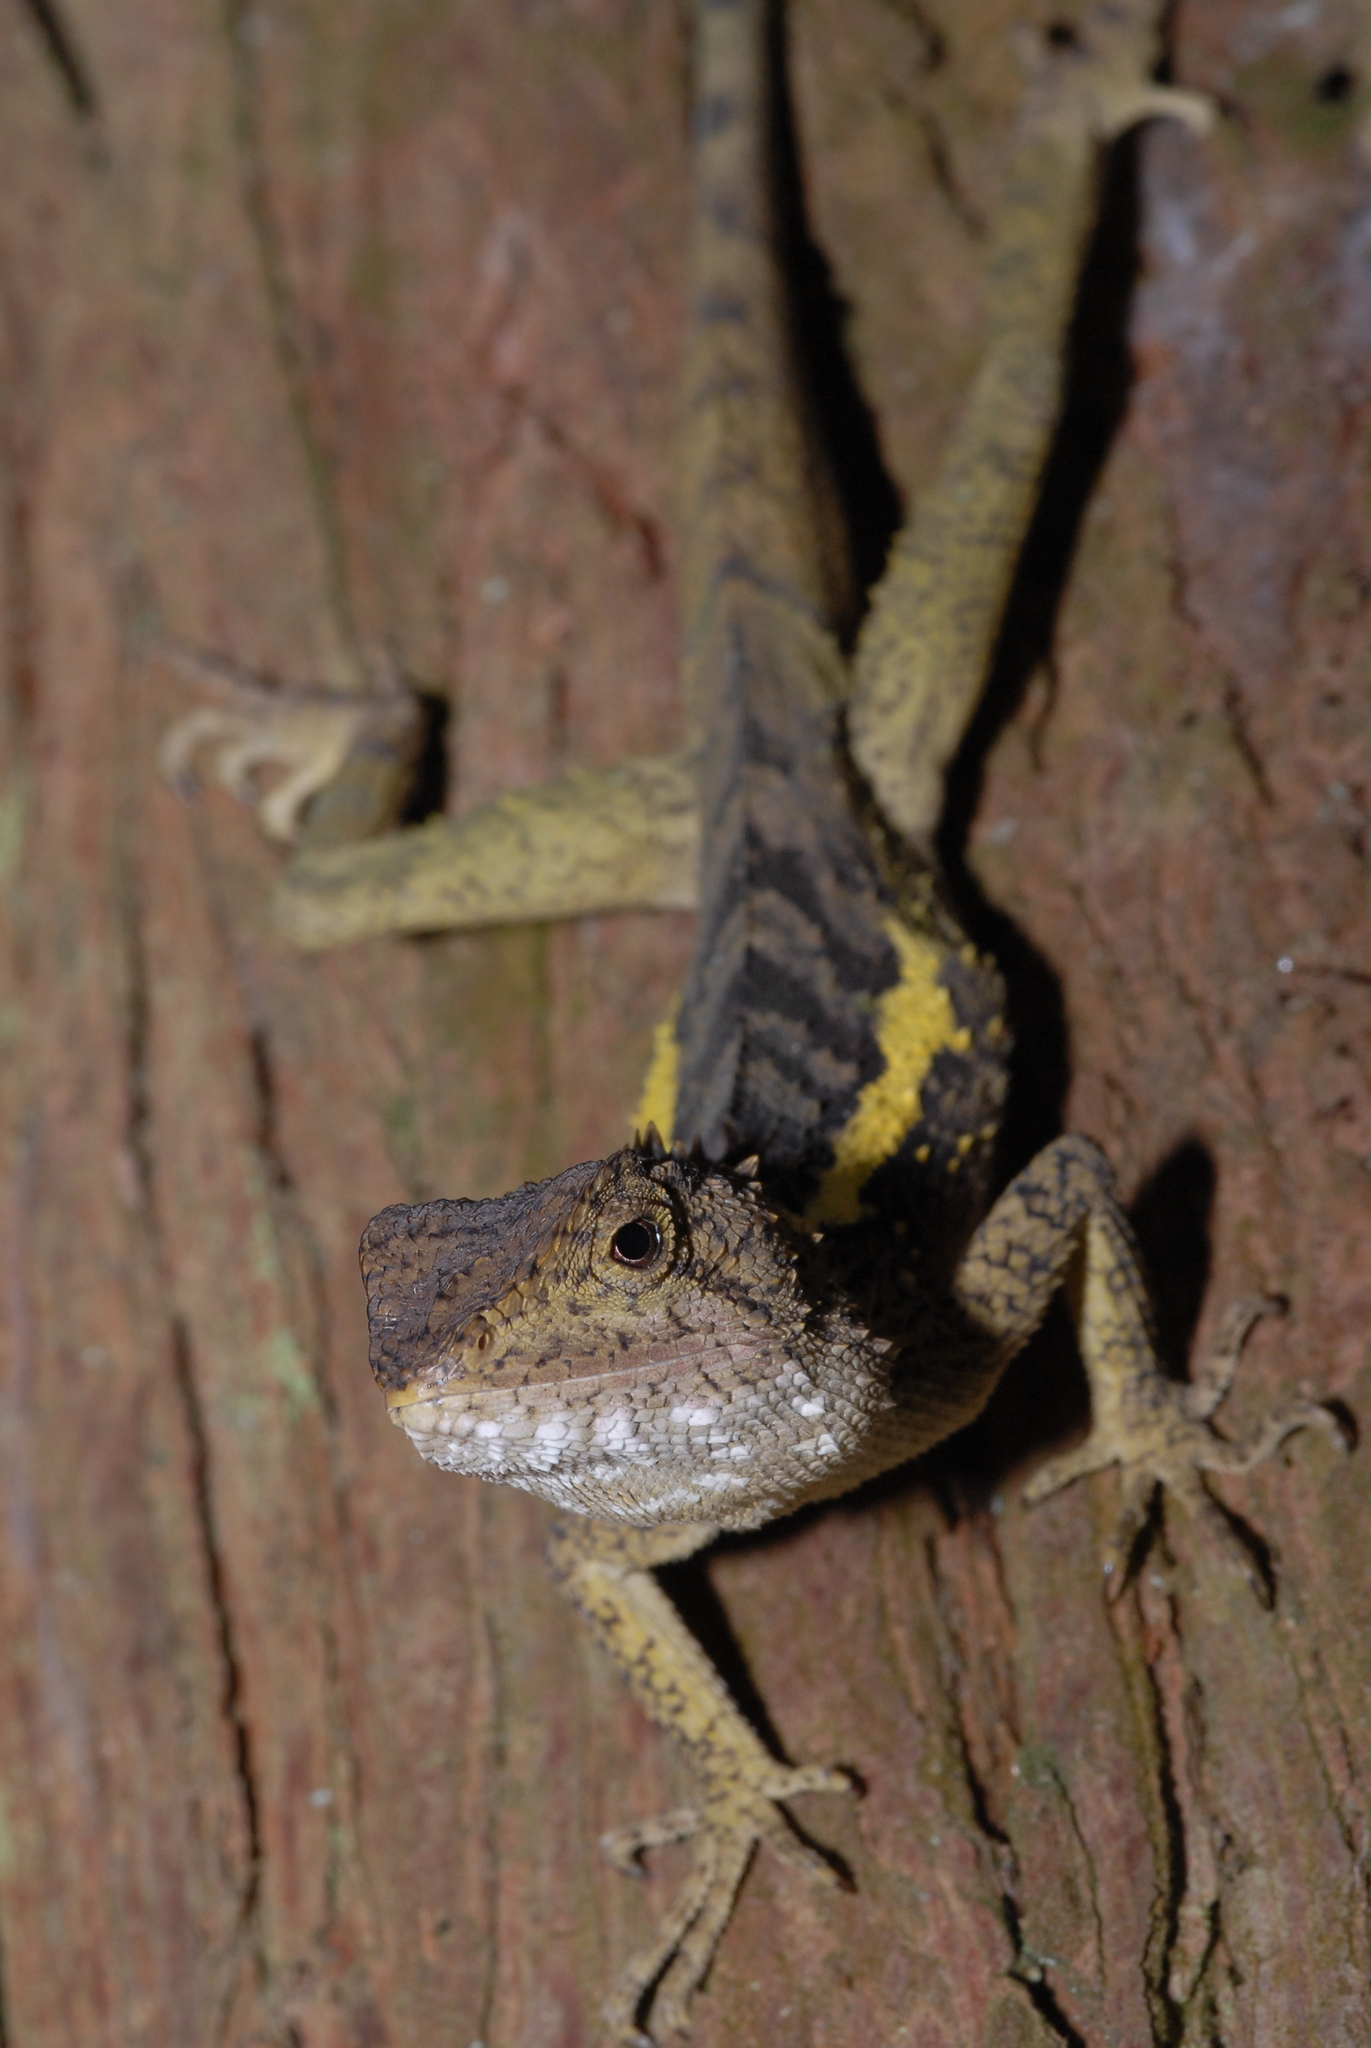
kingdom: Animalia
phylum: Chordata
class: Squamata
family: Agamidae
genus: Diploderma
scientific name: Diploderma swinhonis
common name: Taiwan japalure
